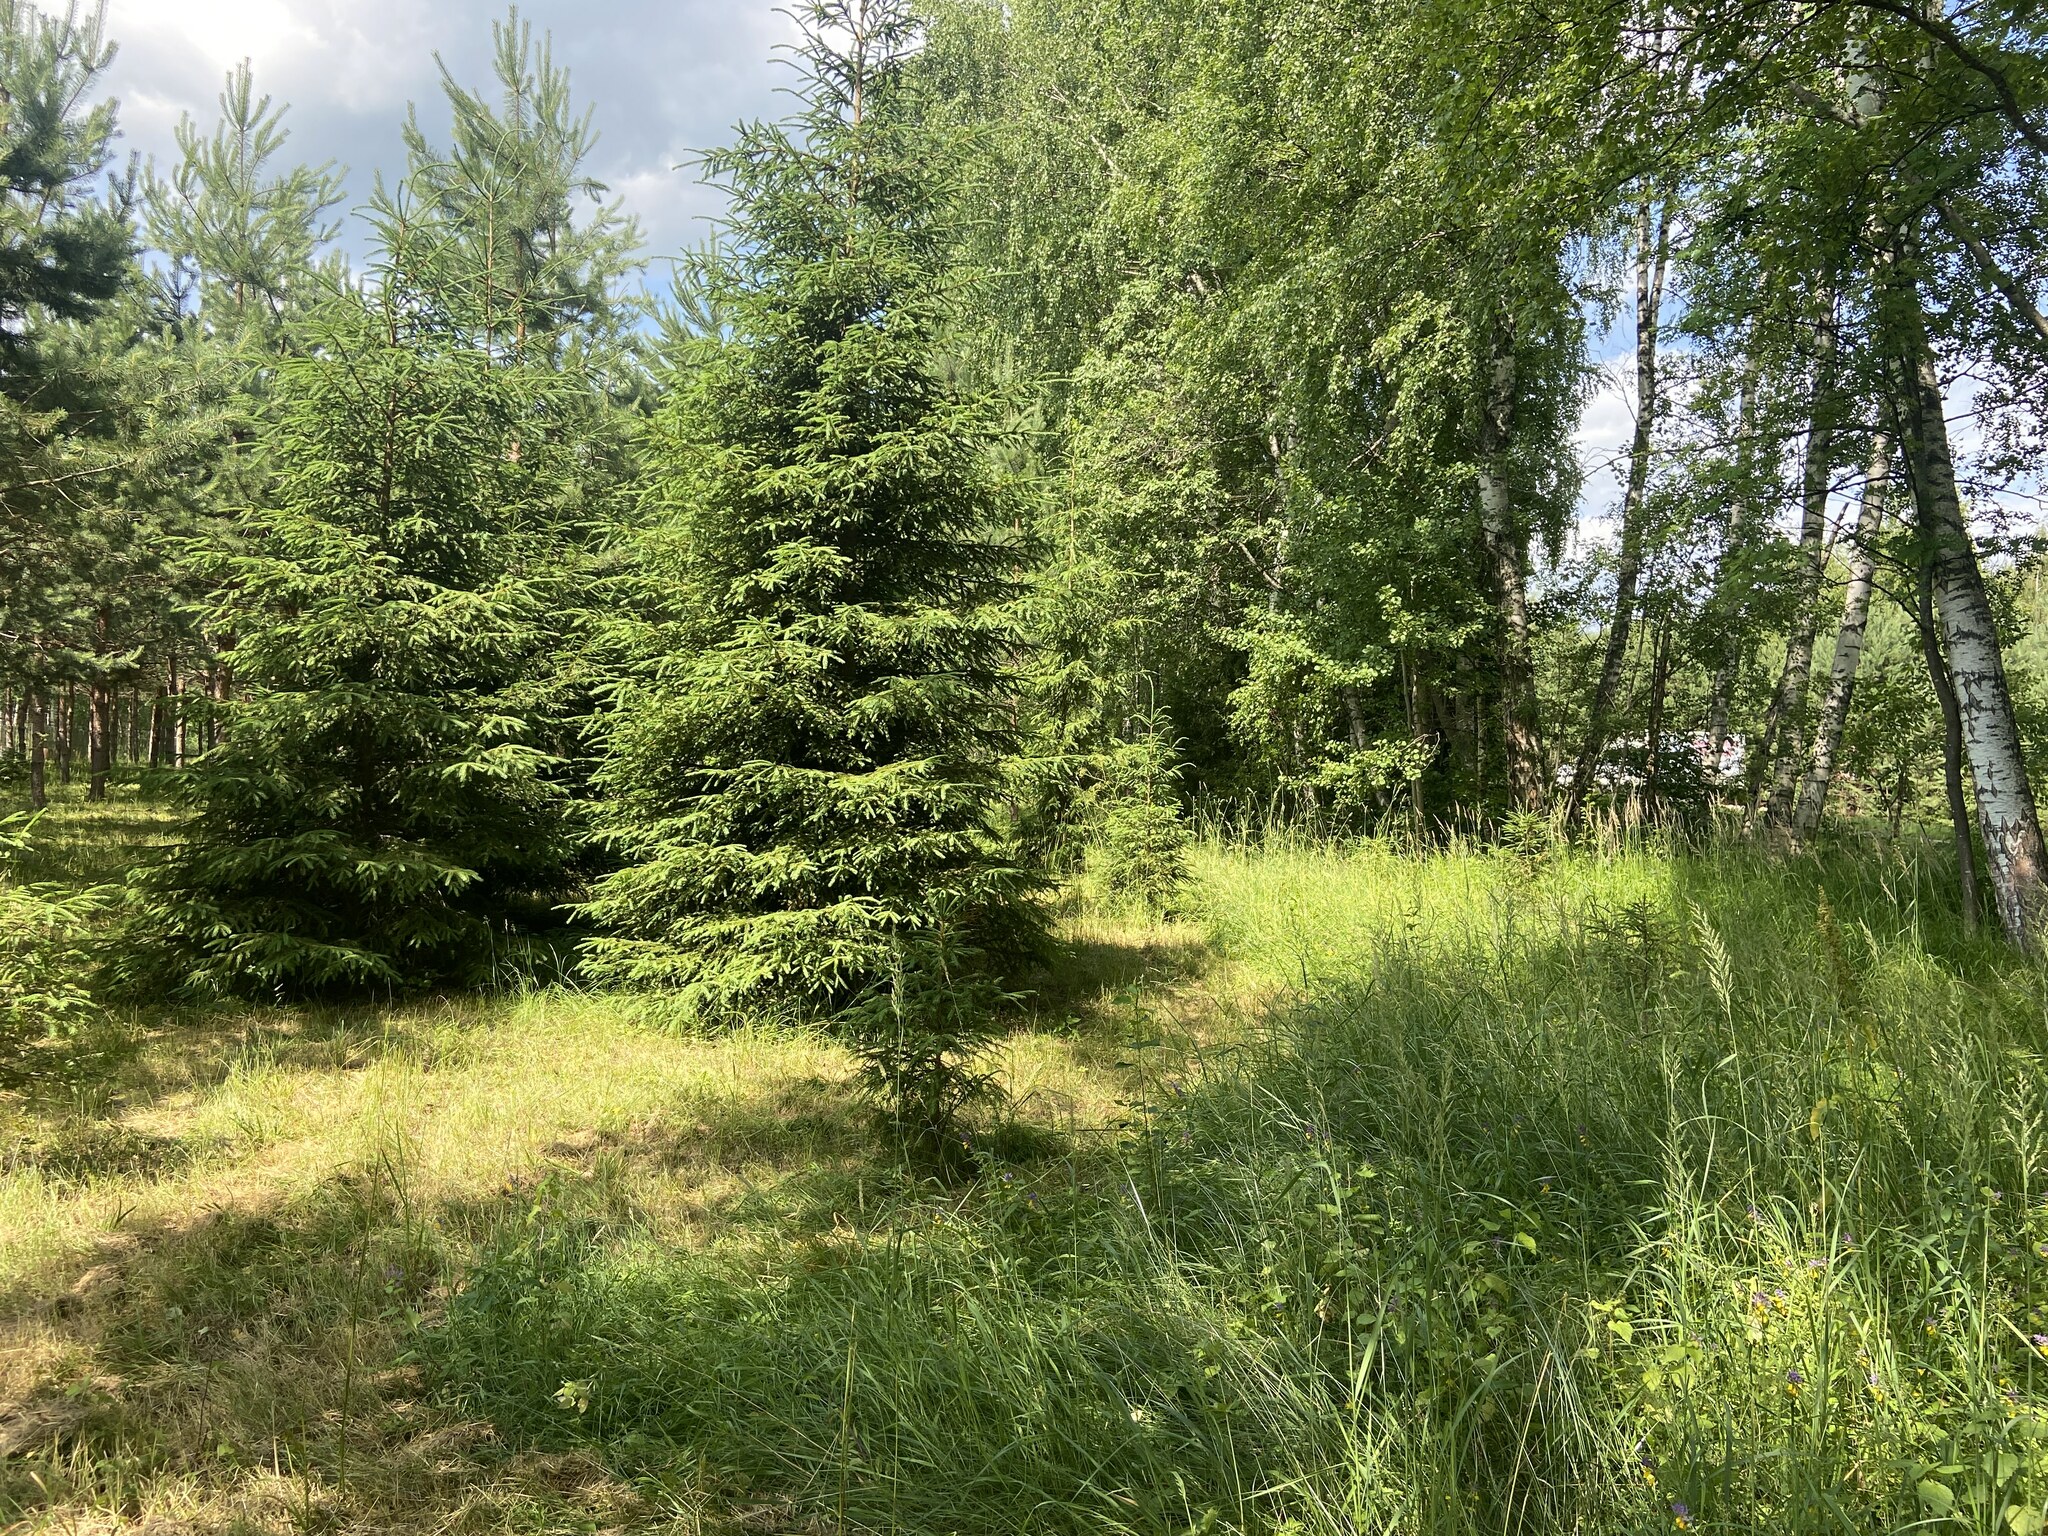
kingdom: Plantae
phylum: Tracheophyta
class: Pinopsida
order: Pinales
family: Pinaceae
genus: Picea
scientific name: Picea abies
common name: Norway spruce
